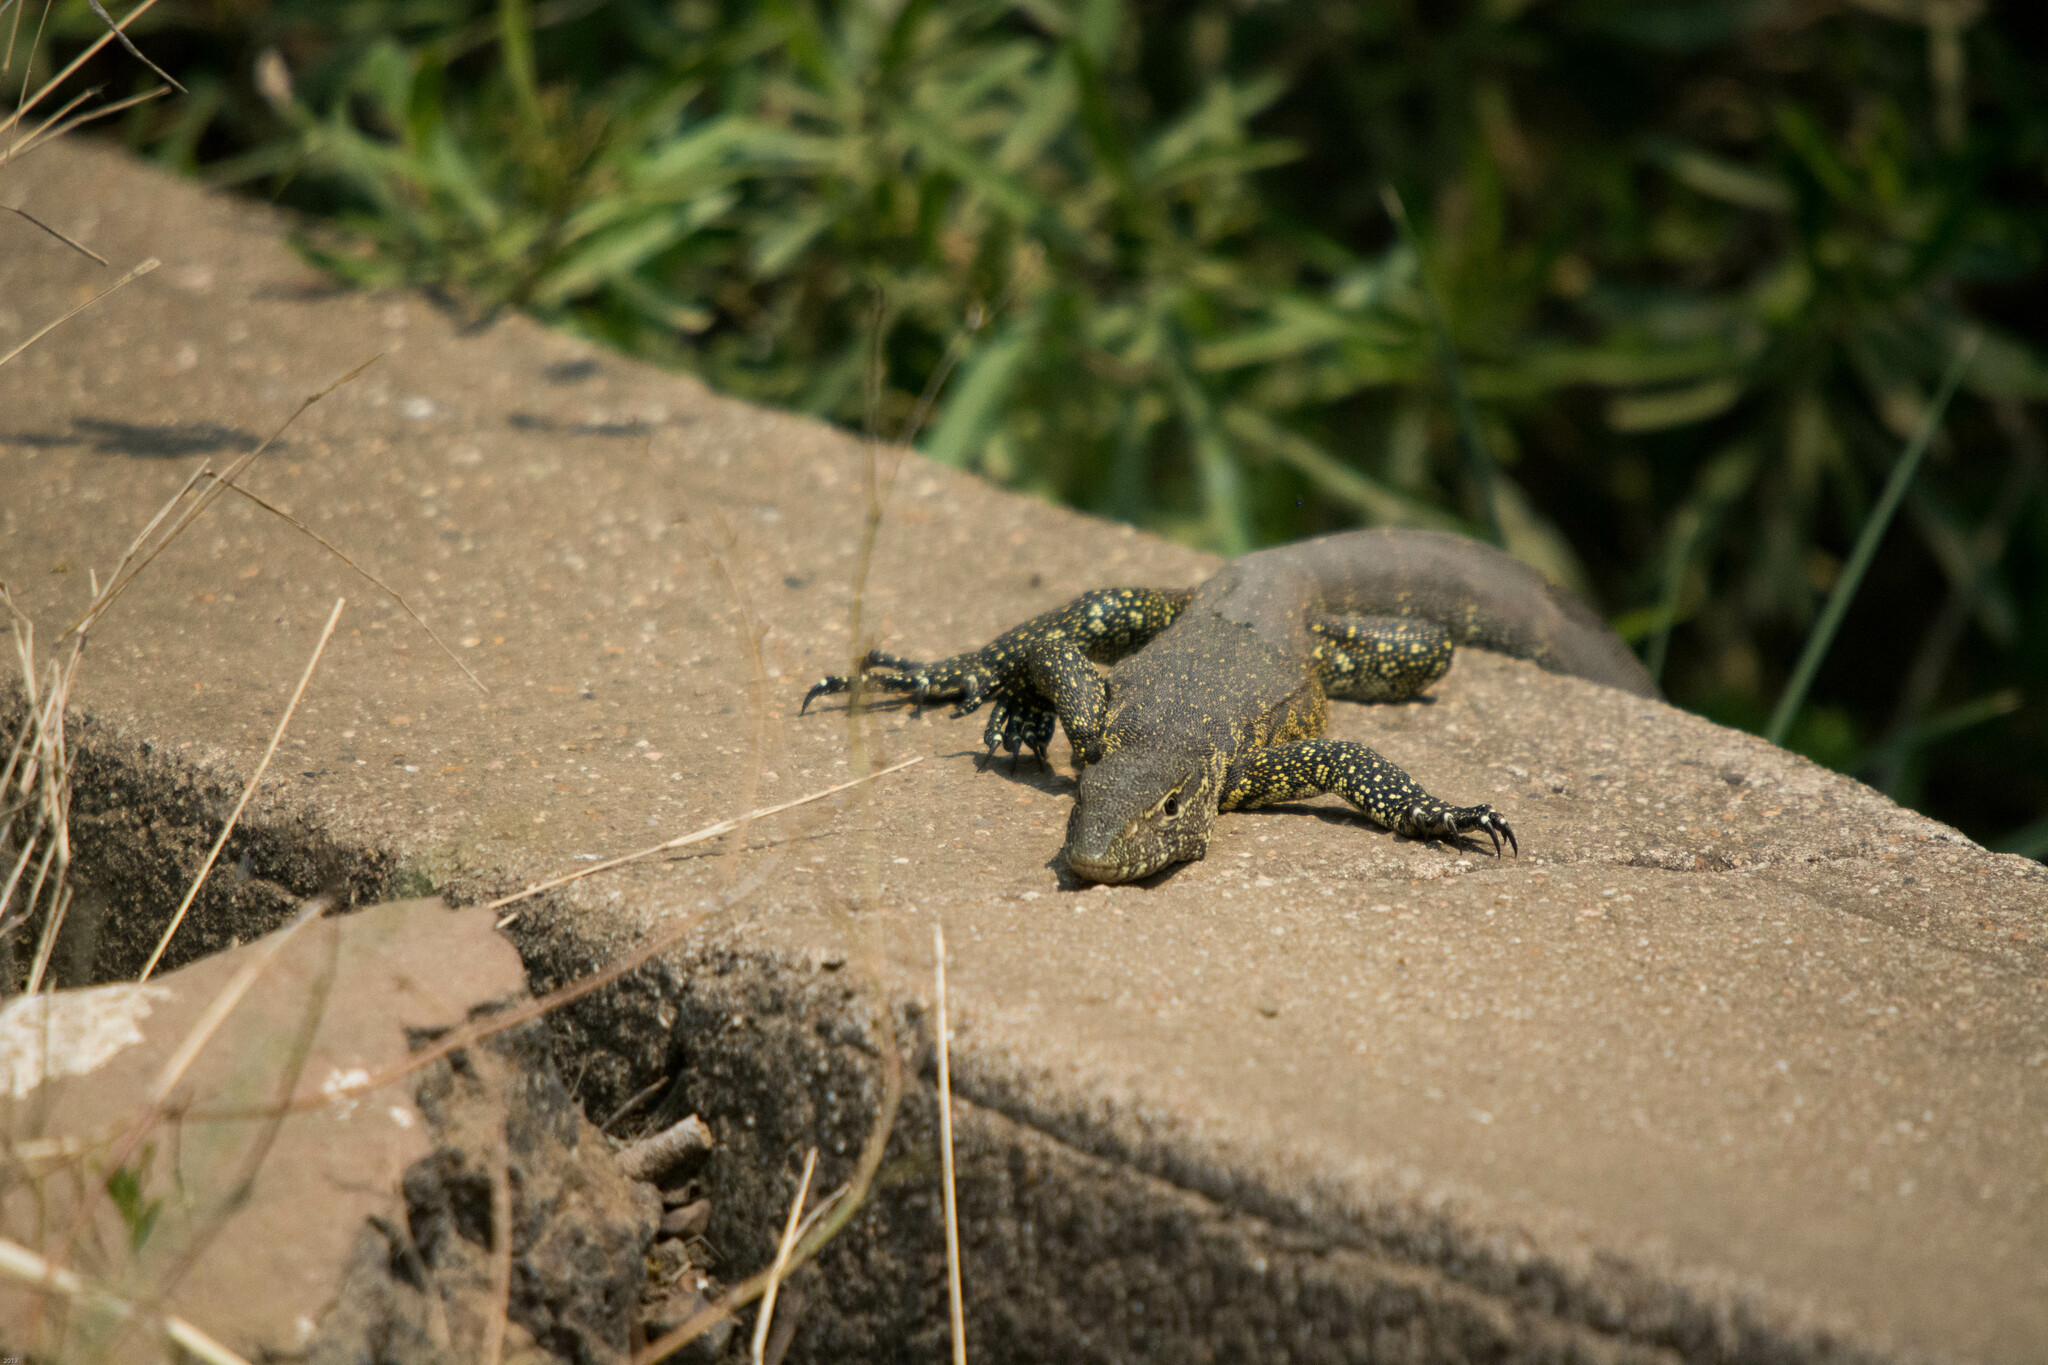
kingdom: Animalia
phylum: Chordata
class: Squamata
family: Varanidae
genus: Varanus
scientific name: Varanus niloticus
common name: Nile monitor
